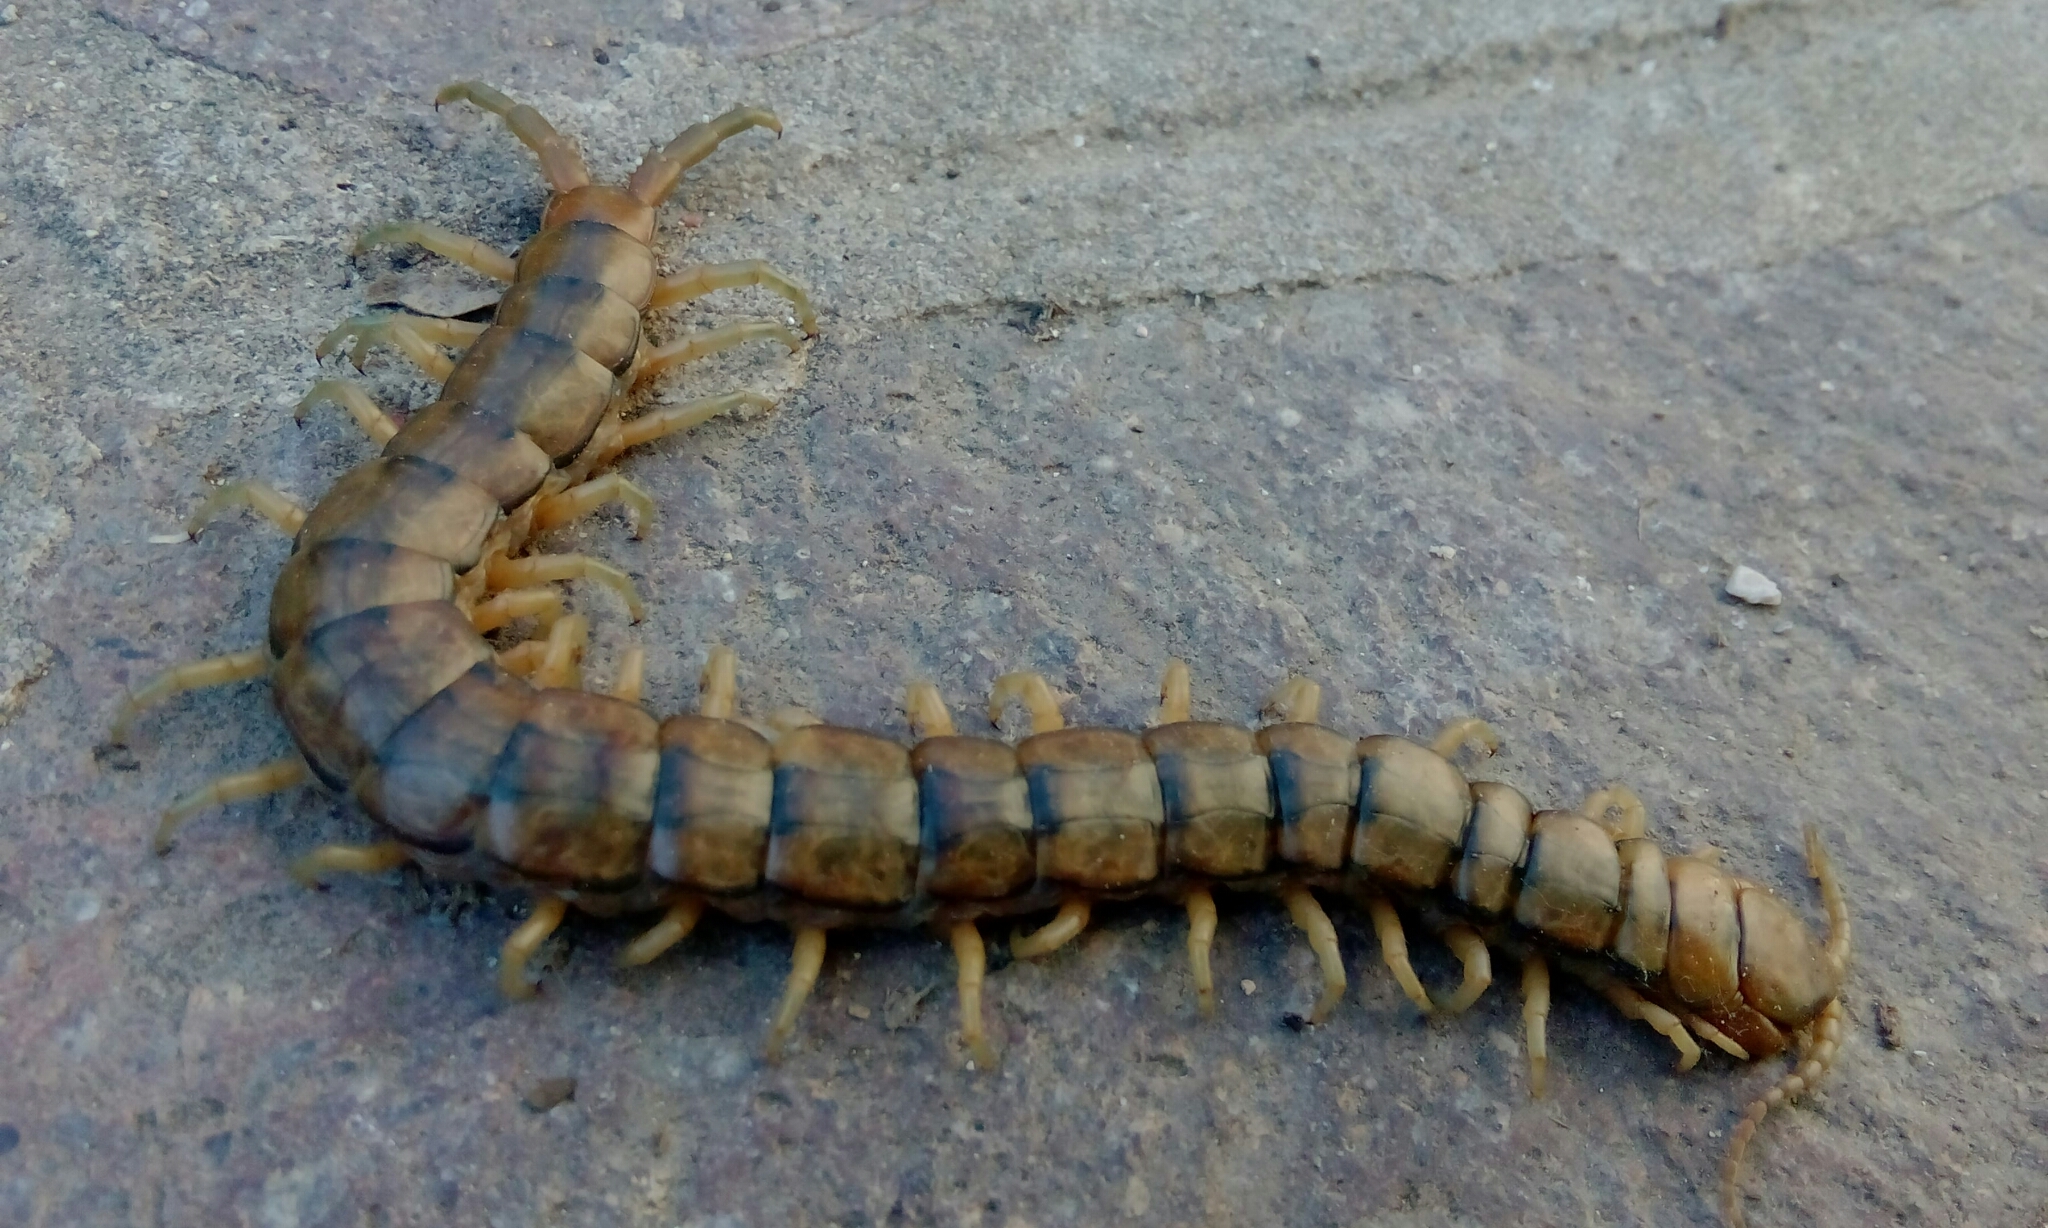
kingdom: Animalia
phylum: Arthropoda
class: Chilopoda
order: Scolopendromorpha
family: Scolopendridae
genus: Scolopendra
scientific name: Scolopendra cingulata
